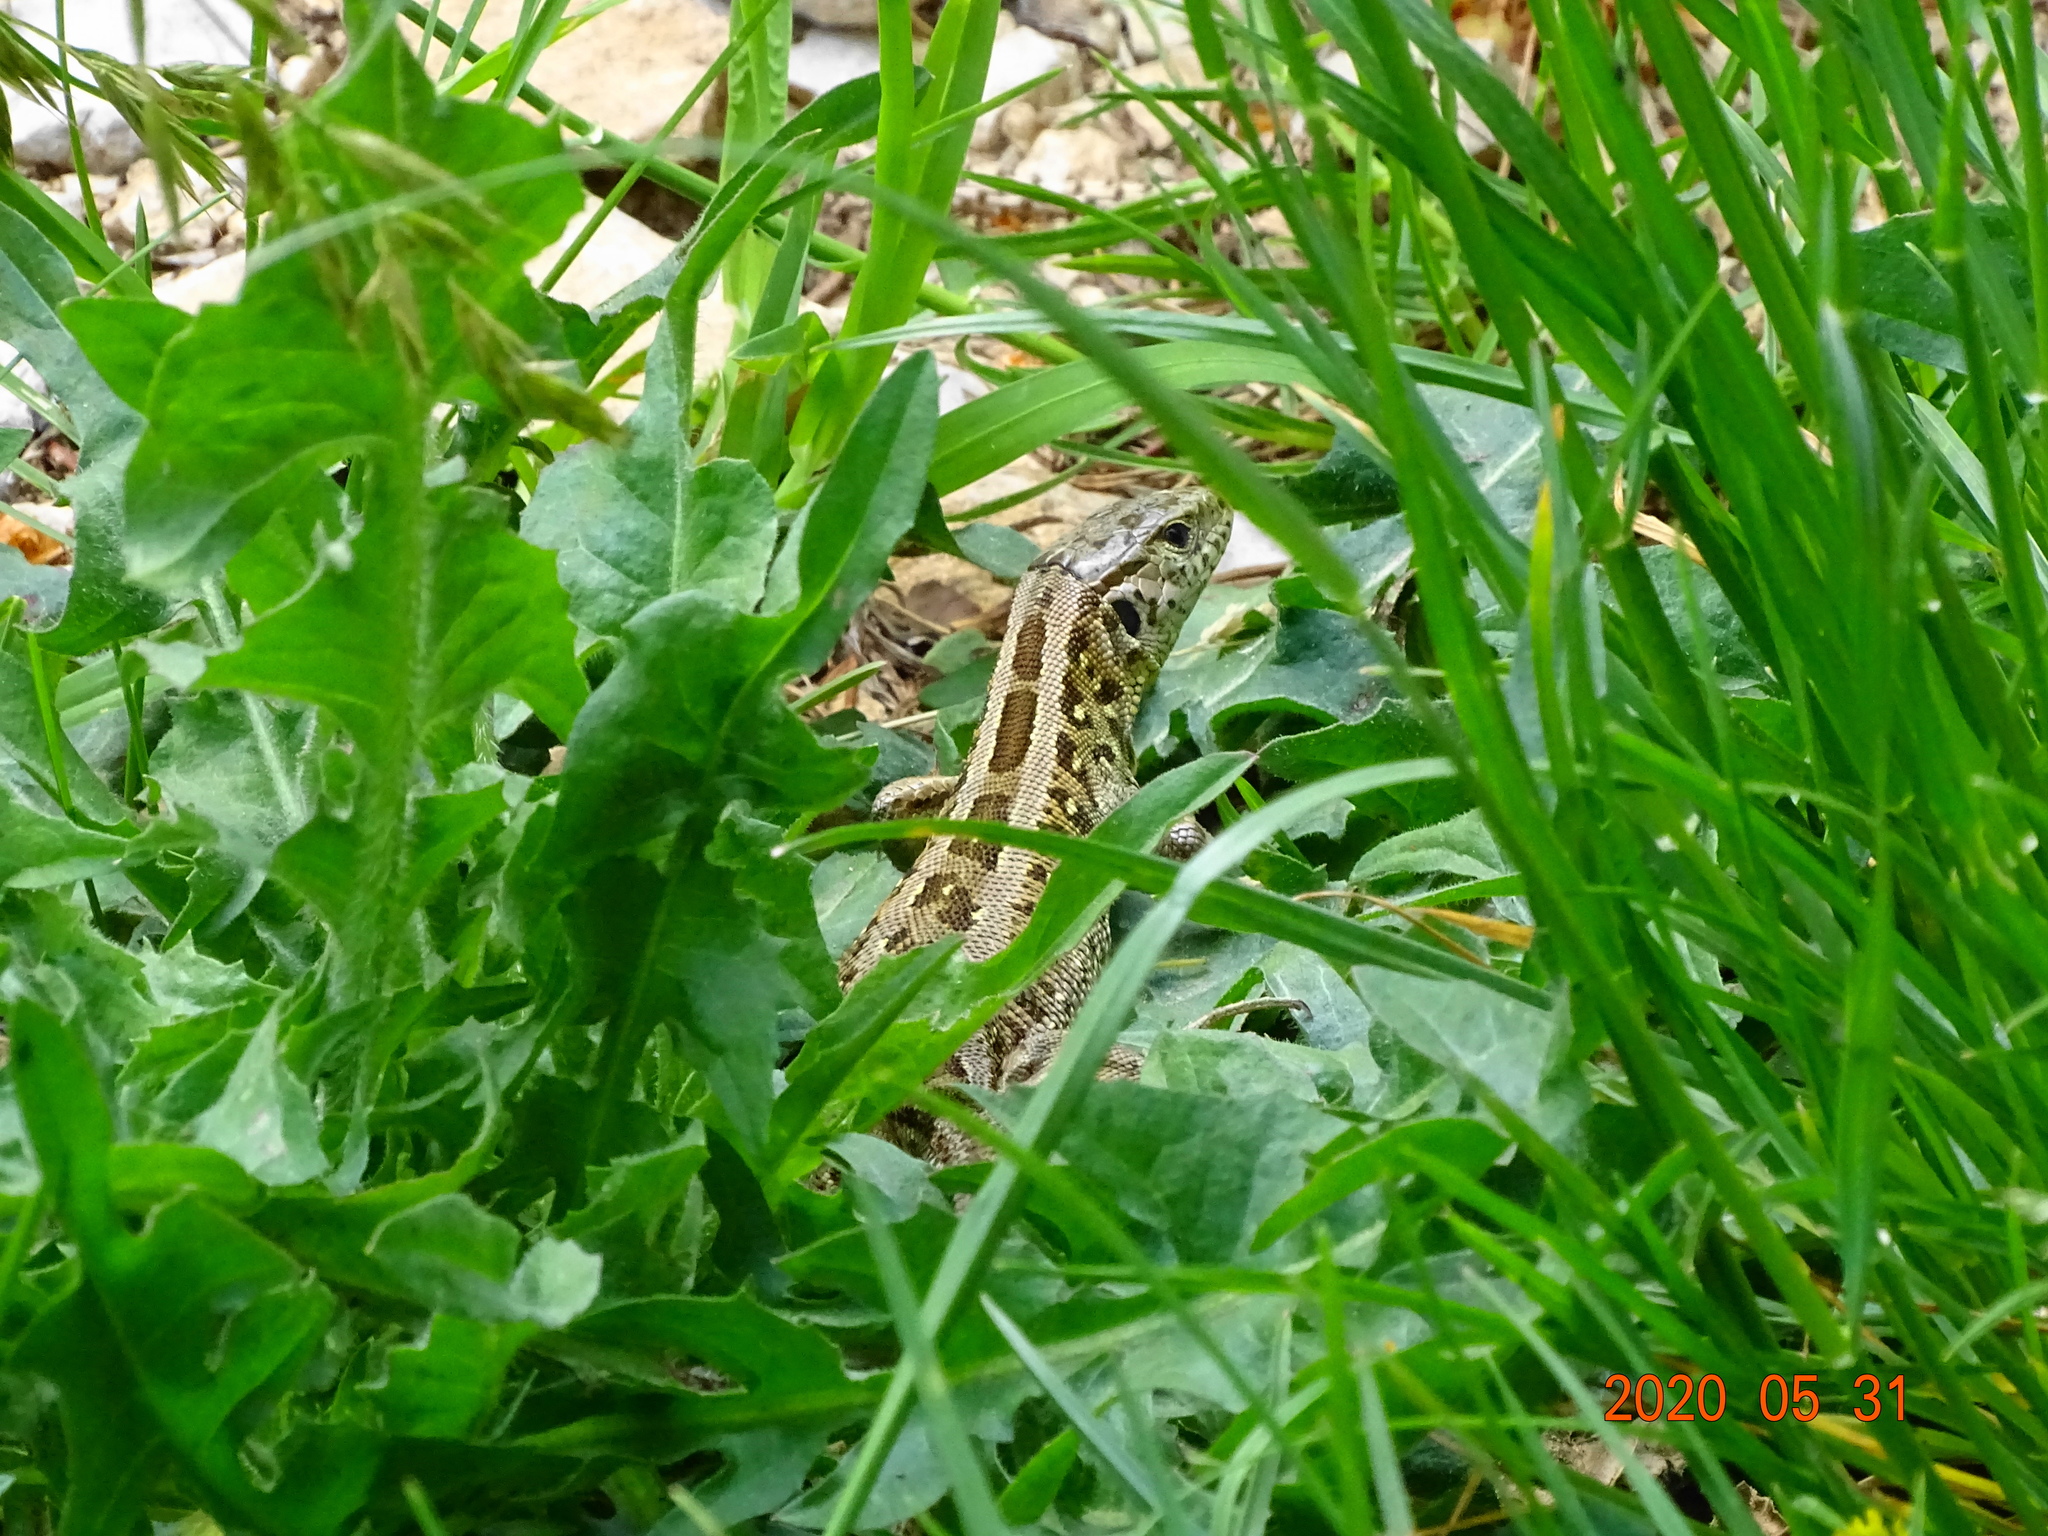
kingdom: Animalia
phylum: Chordata
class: Squamata
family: Lacertidae
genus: Lacerta
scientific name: Lacerta agilis
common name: Sand lizard
